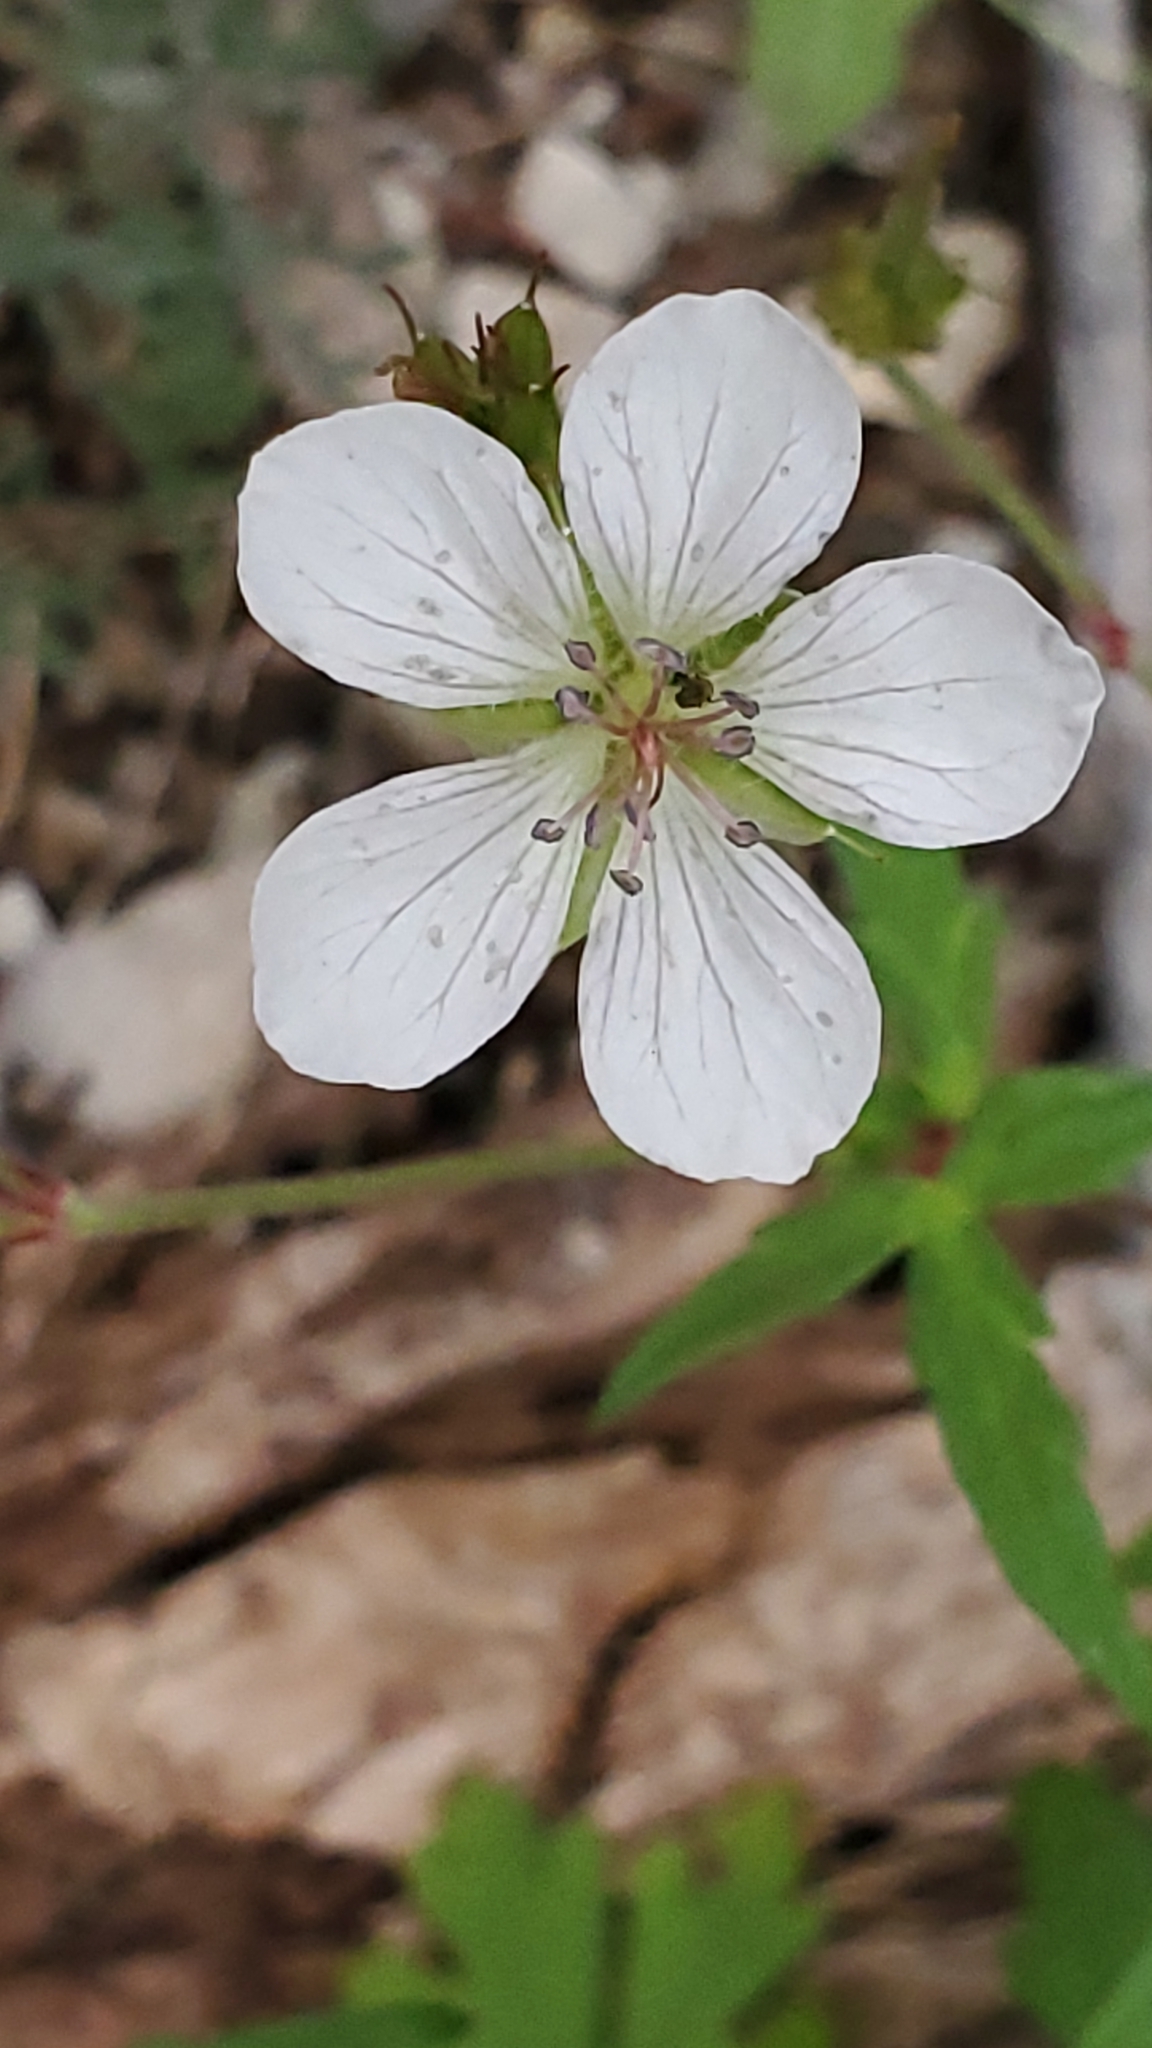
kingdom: Plantae
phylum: Tracheophyta
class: Magnoliopsida
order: Geraniales
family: Geraniaceae
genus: Geranium
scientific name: Geranium richardsonii
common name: Richardson's crane's-bill
